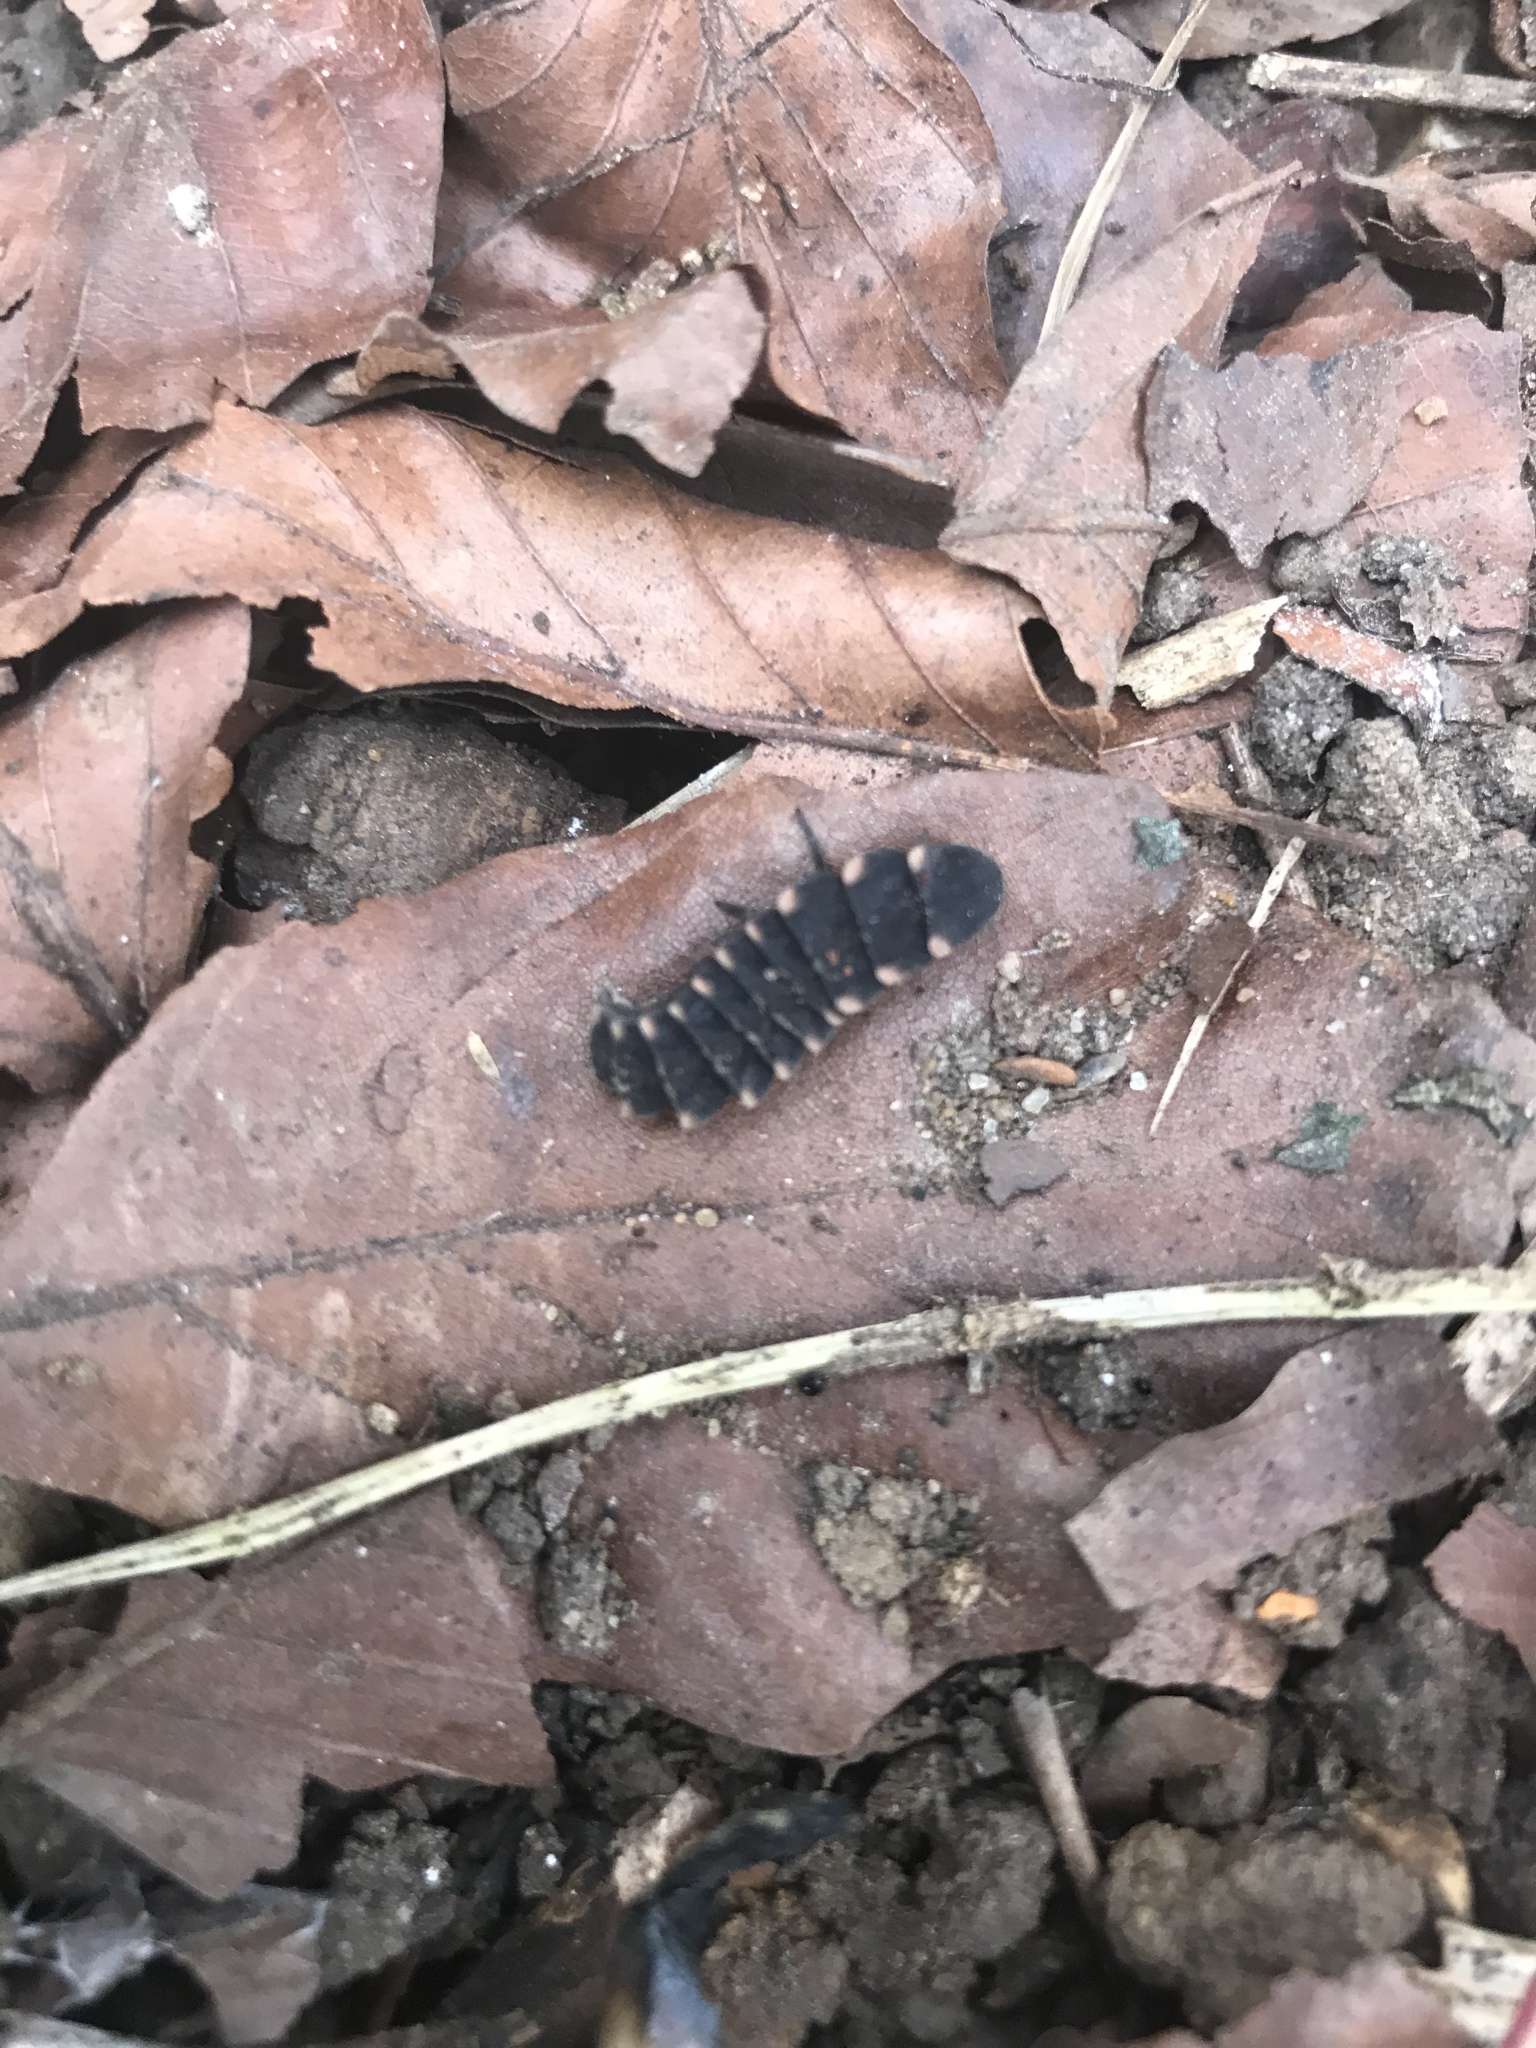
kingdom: Animalia
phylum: Arthropoda
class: Insecta
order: Coleoptera
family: Lampyridae
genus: Lampyris
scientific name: Lampyris noctiluca
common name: Glow-worm
